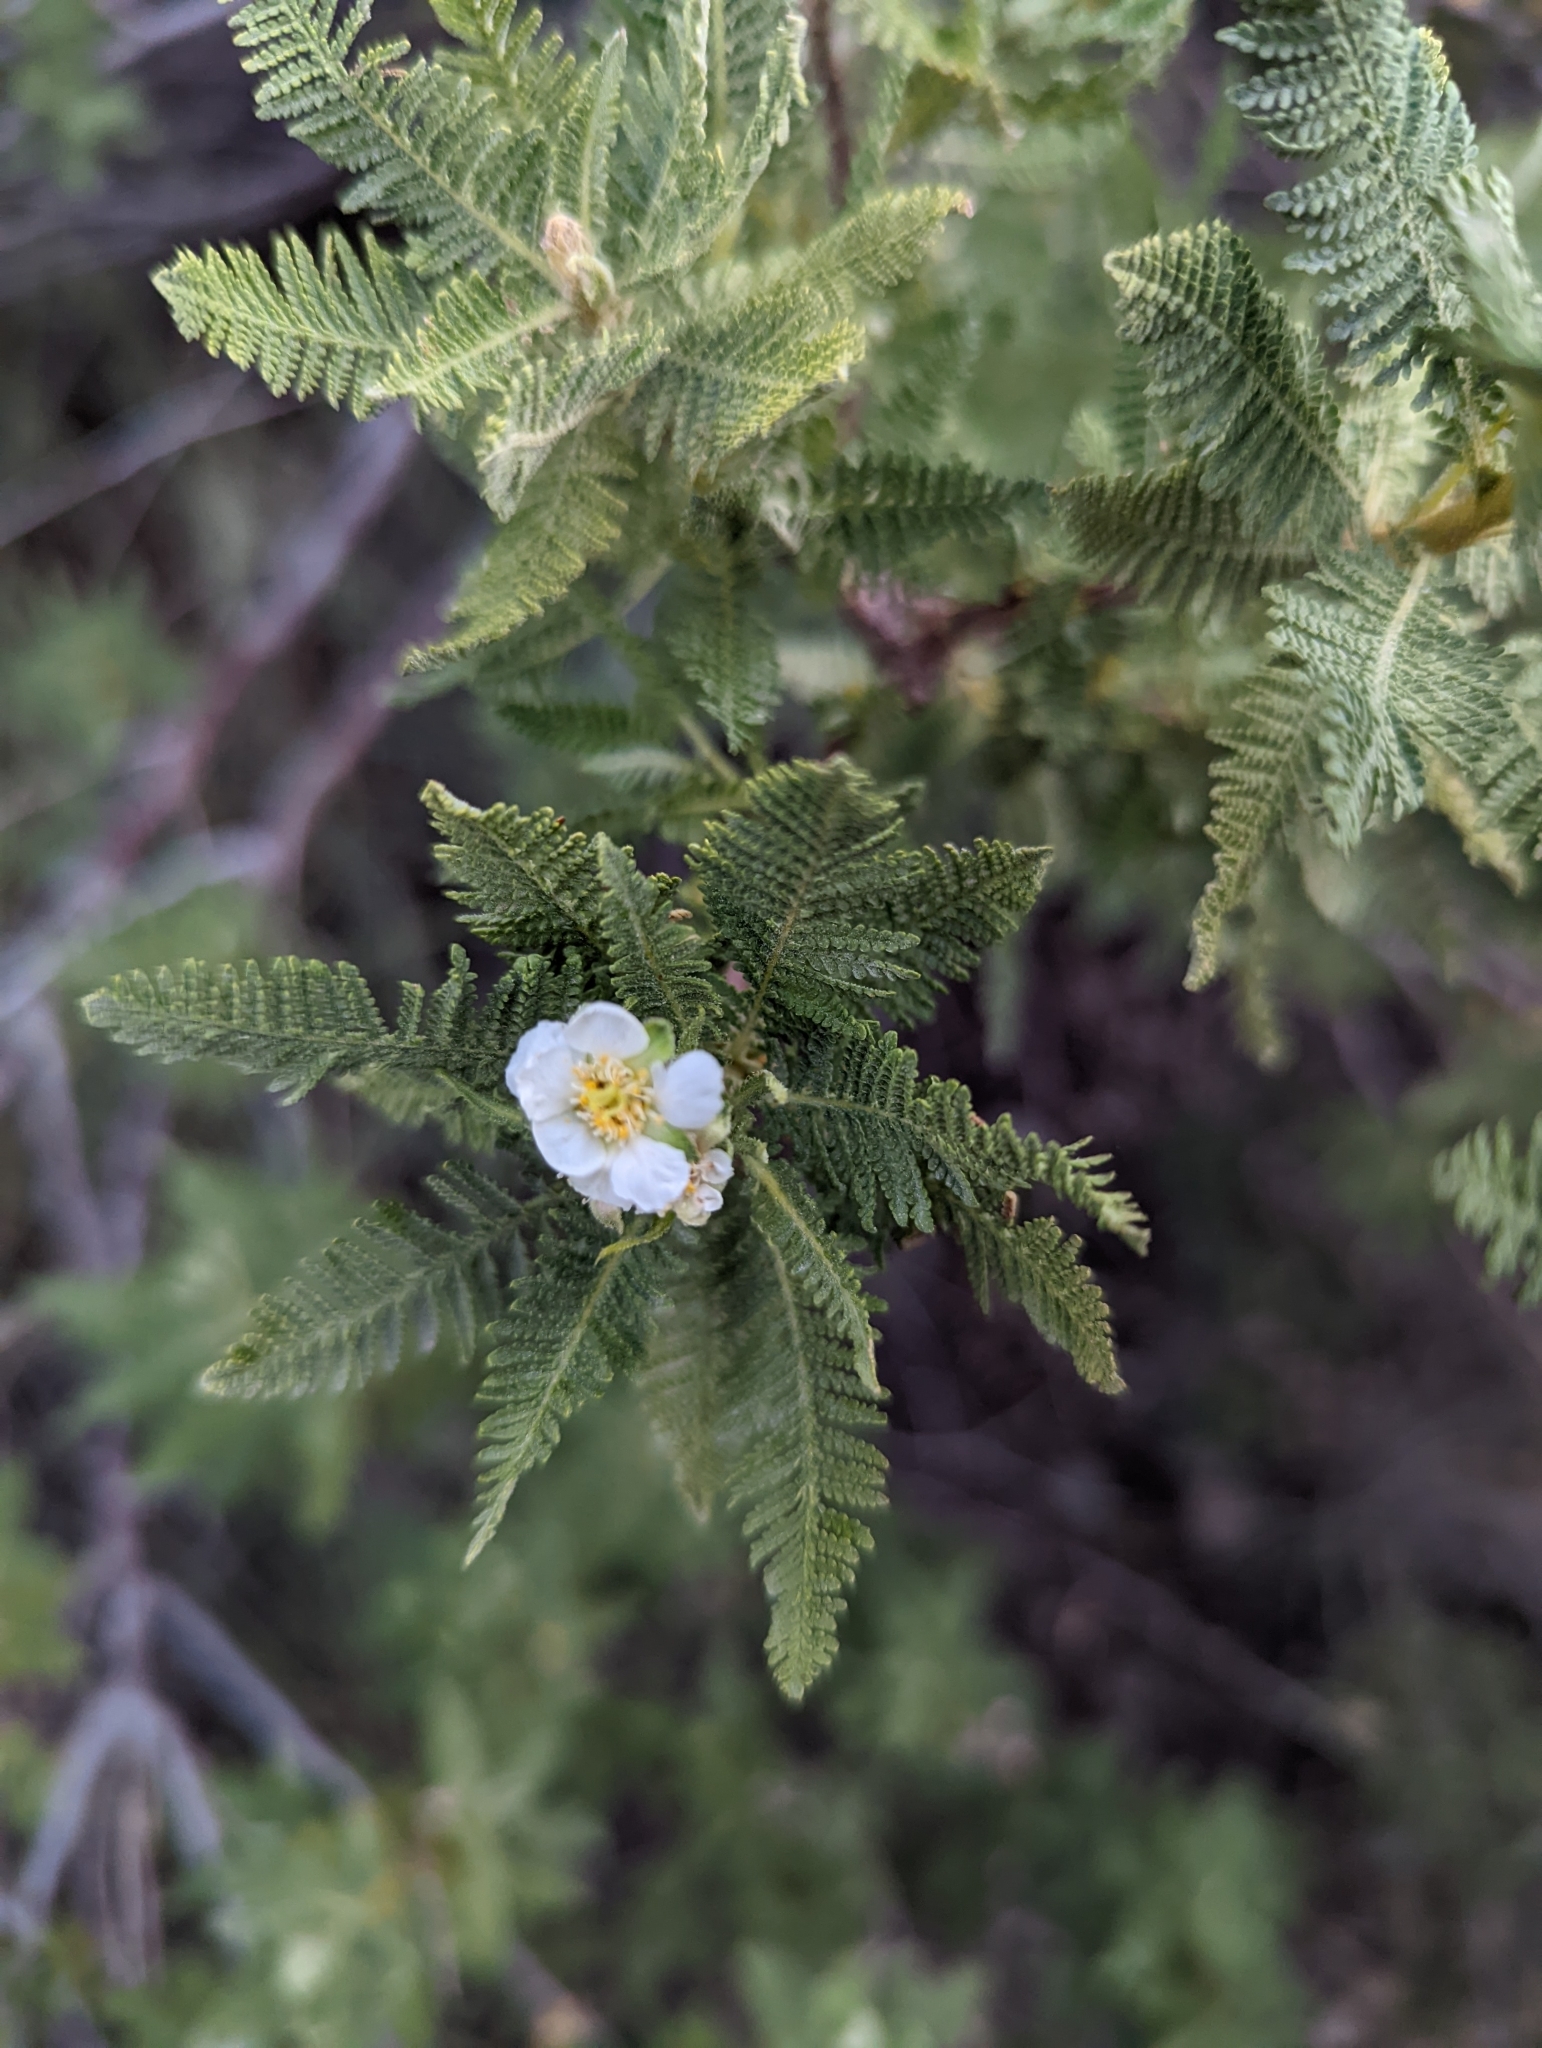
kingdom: Plantae
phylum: Tracheophyta
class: Magnoliopsida
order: Rosales
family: Rosaceae
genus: Chamaebatiaria
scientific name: Chamaebatiaria millefolium
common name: Fernbush
